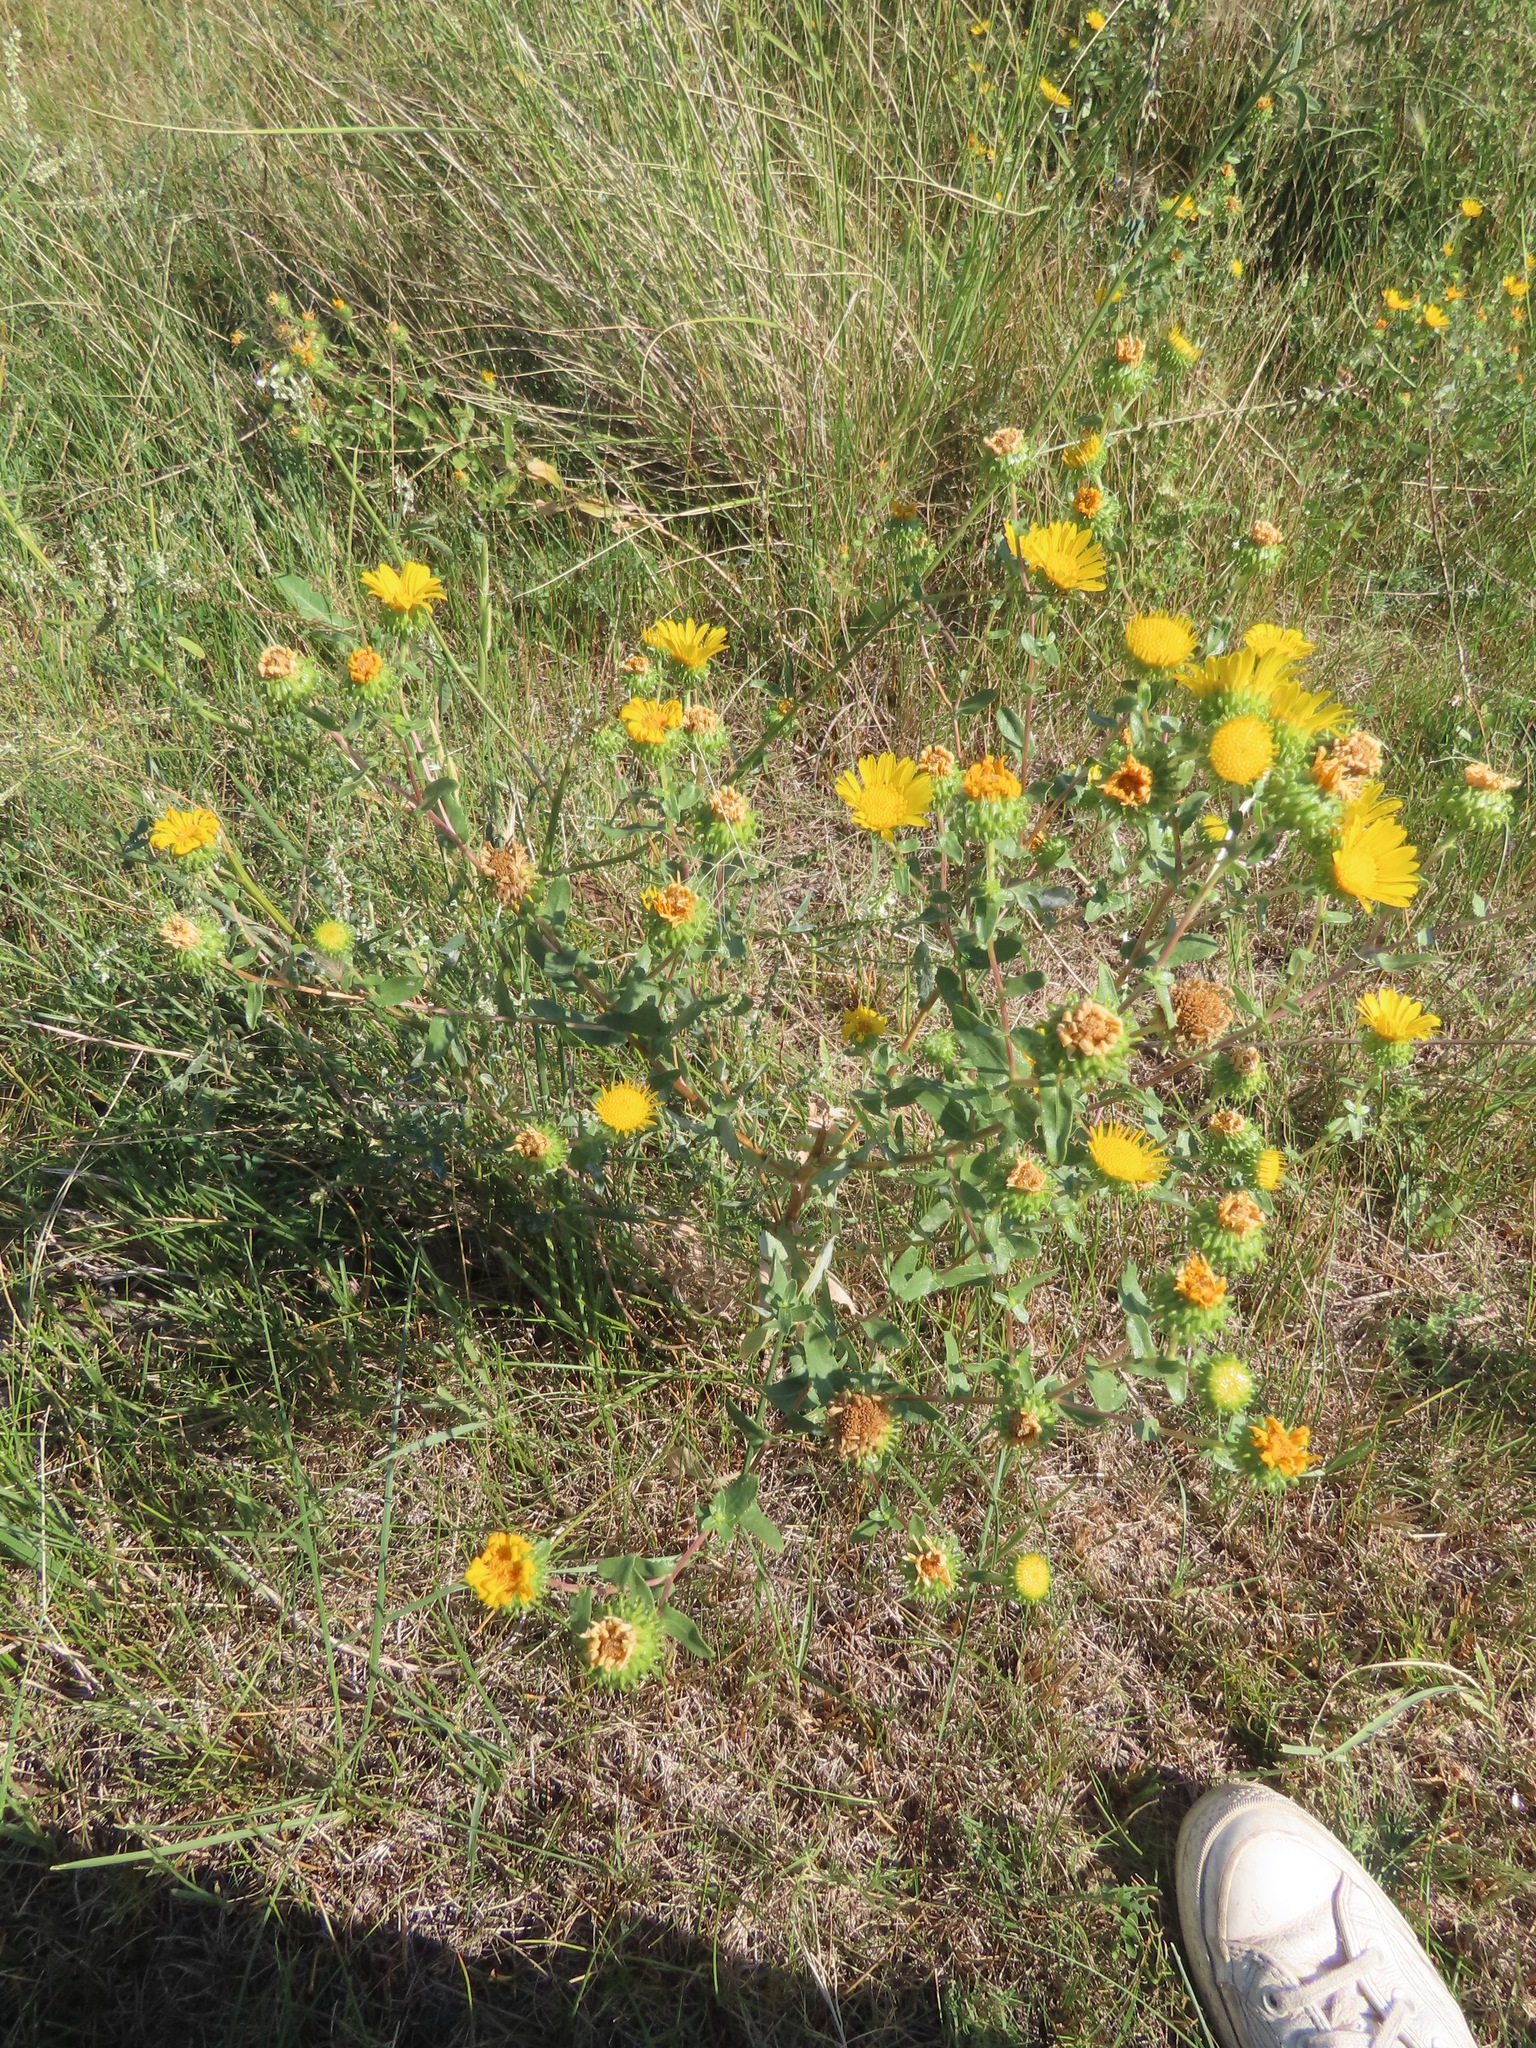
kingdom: Plantae
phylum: Tracheophyta
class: Magnoliopsida
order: Asterales
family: Asteraceae
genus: Grindelia
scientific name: Grindelia squarrosa
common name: Curly-cup gumweed
